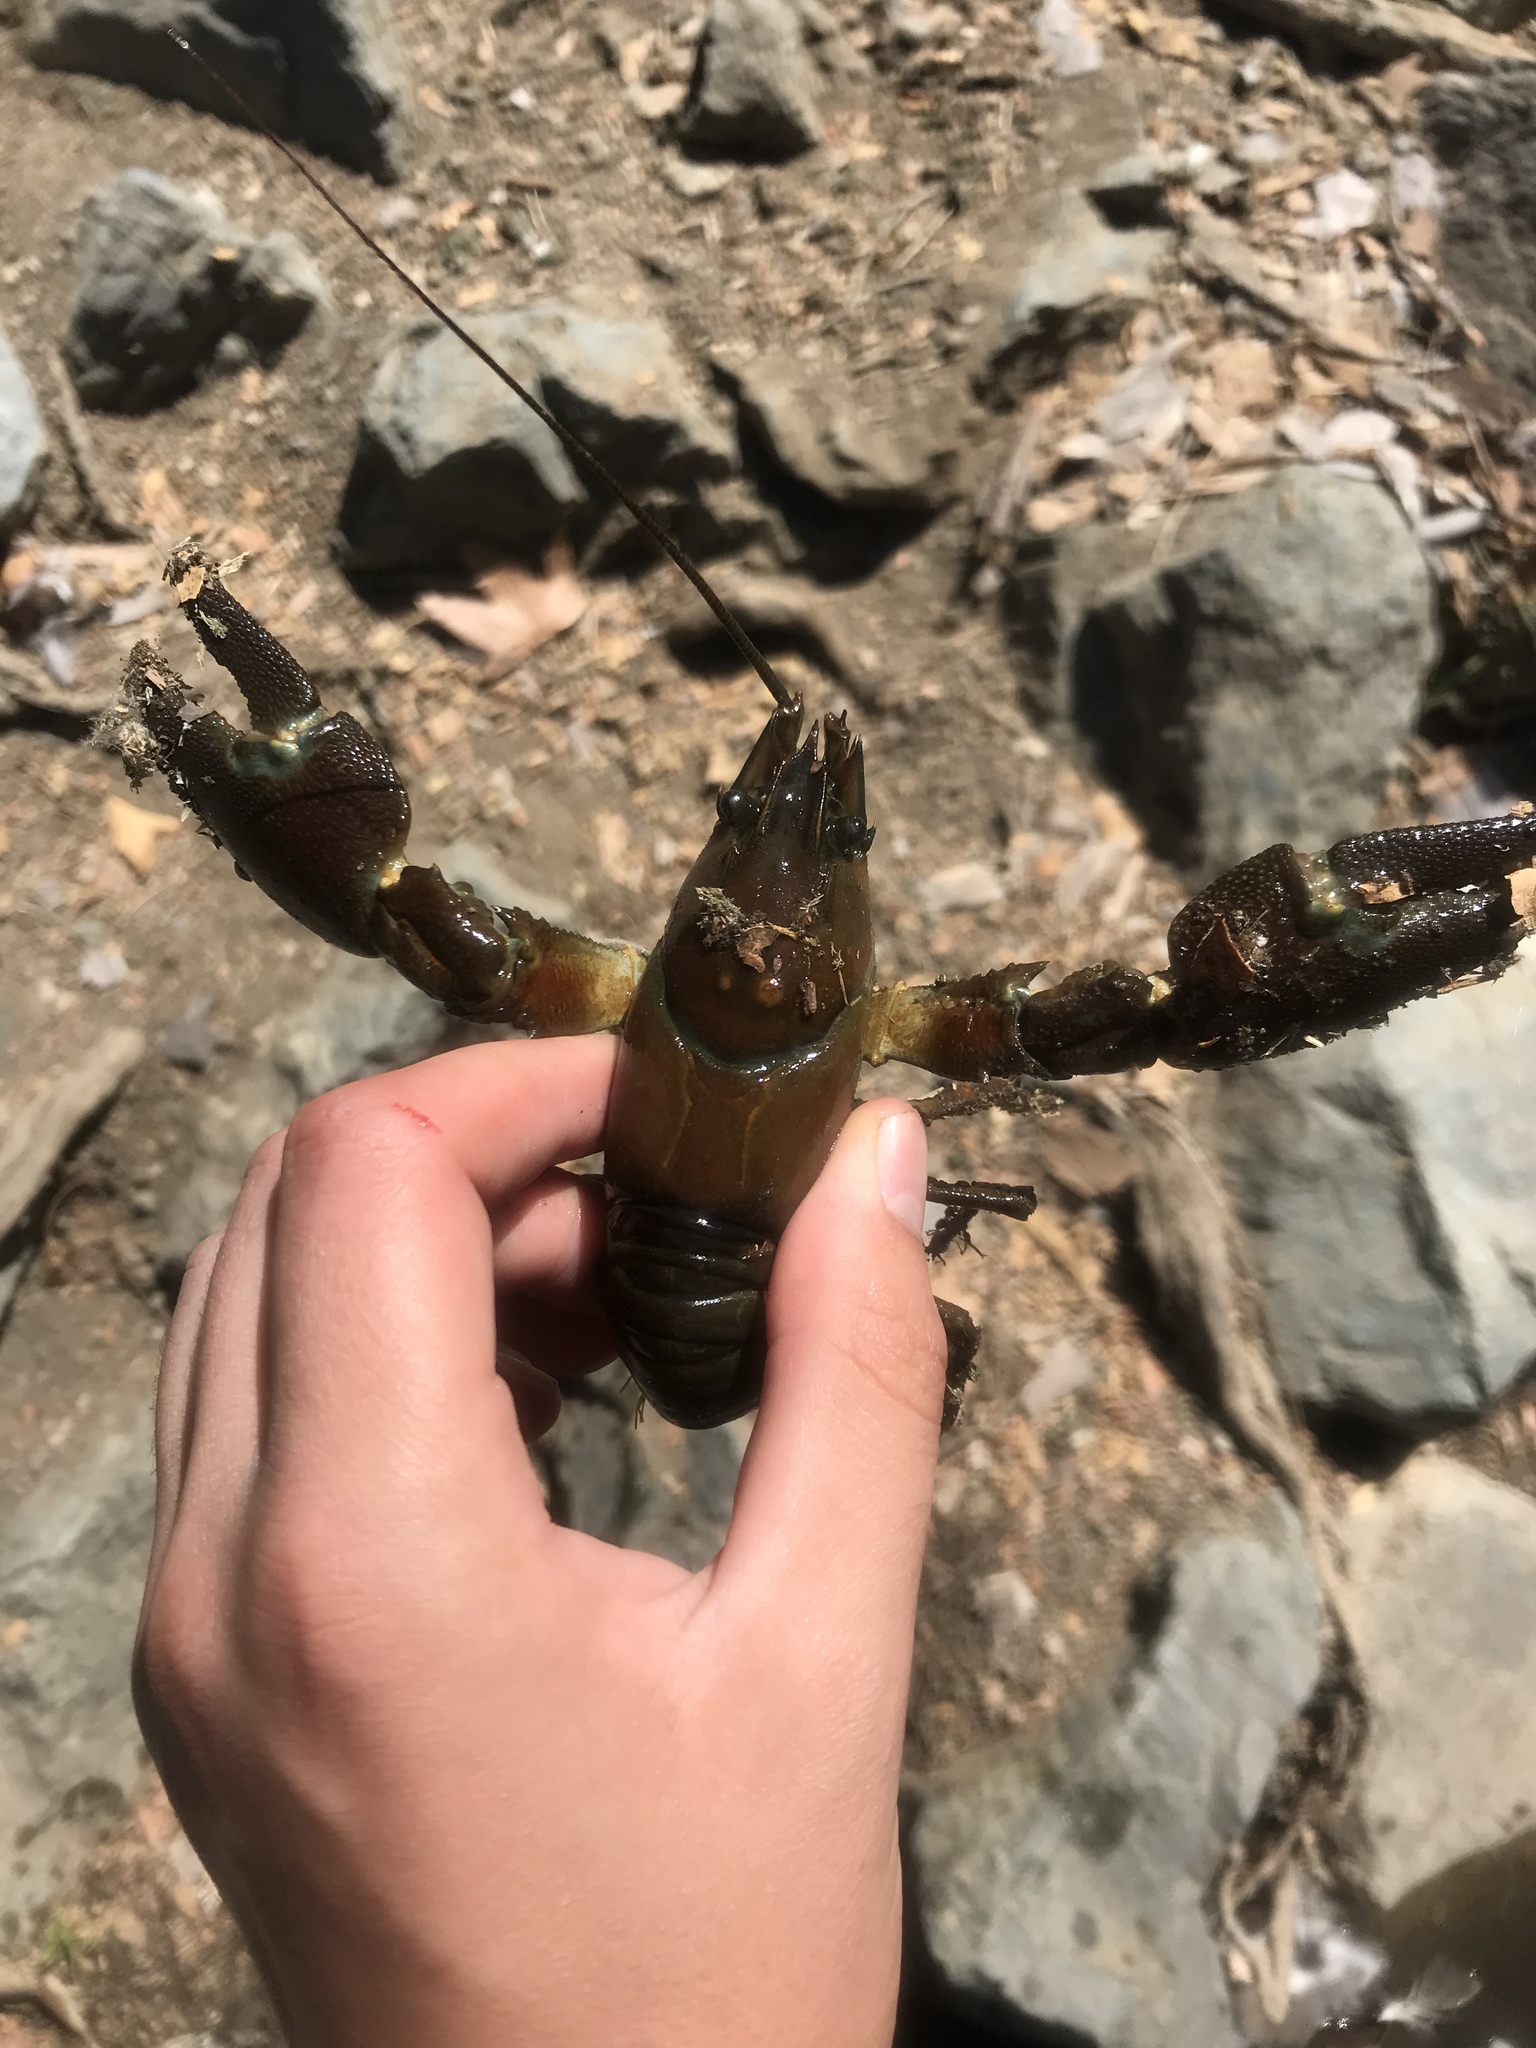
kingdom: Animalia
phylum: Arthropoda
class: Malacostraca
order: Decapoda
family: Astacidae
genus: Pacifastacus
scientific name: Pacifastacus leniusculus
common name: Signal crayfish
